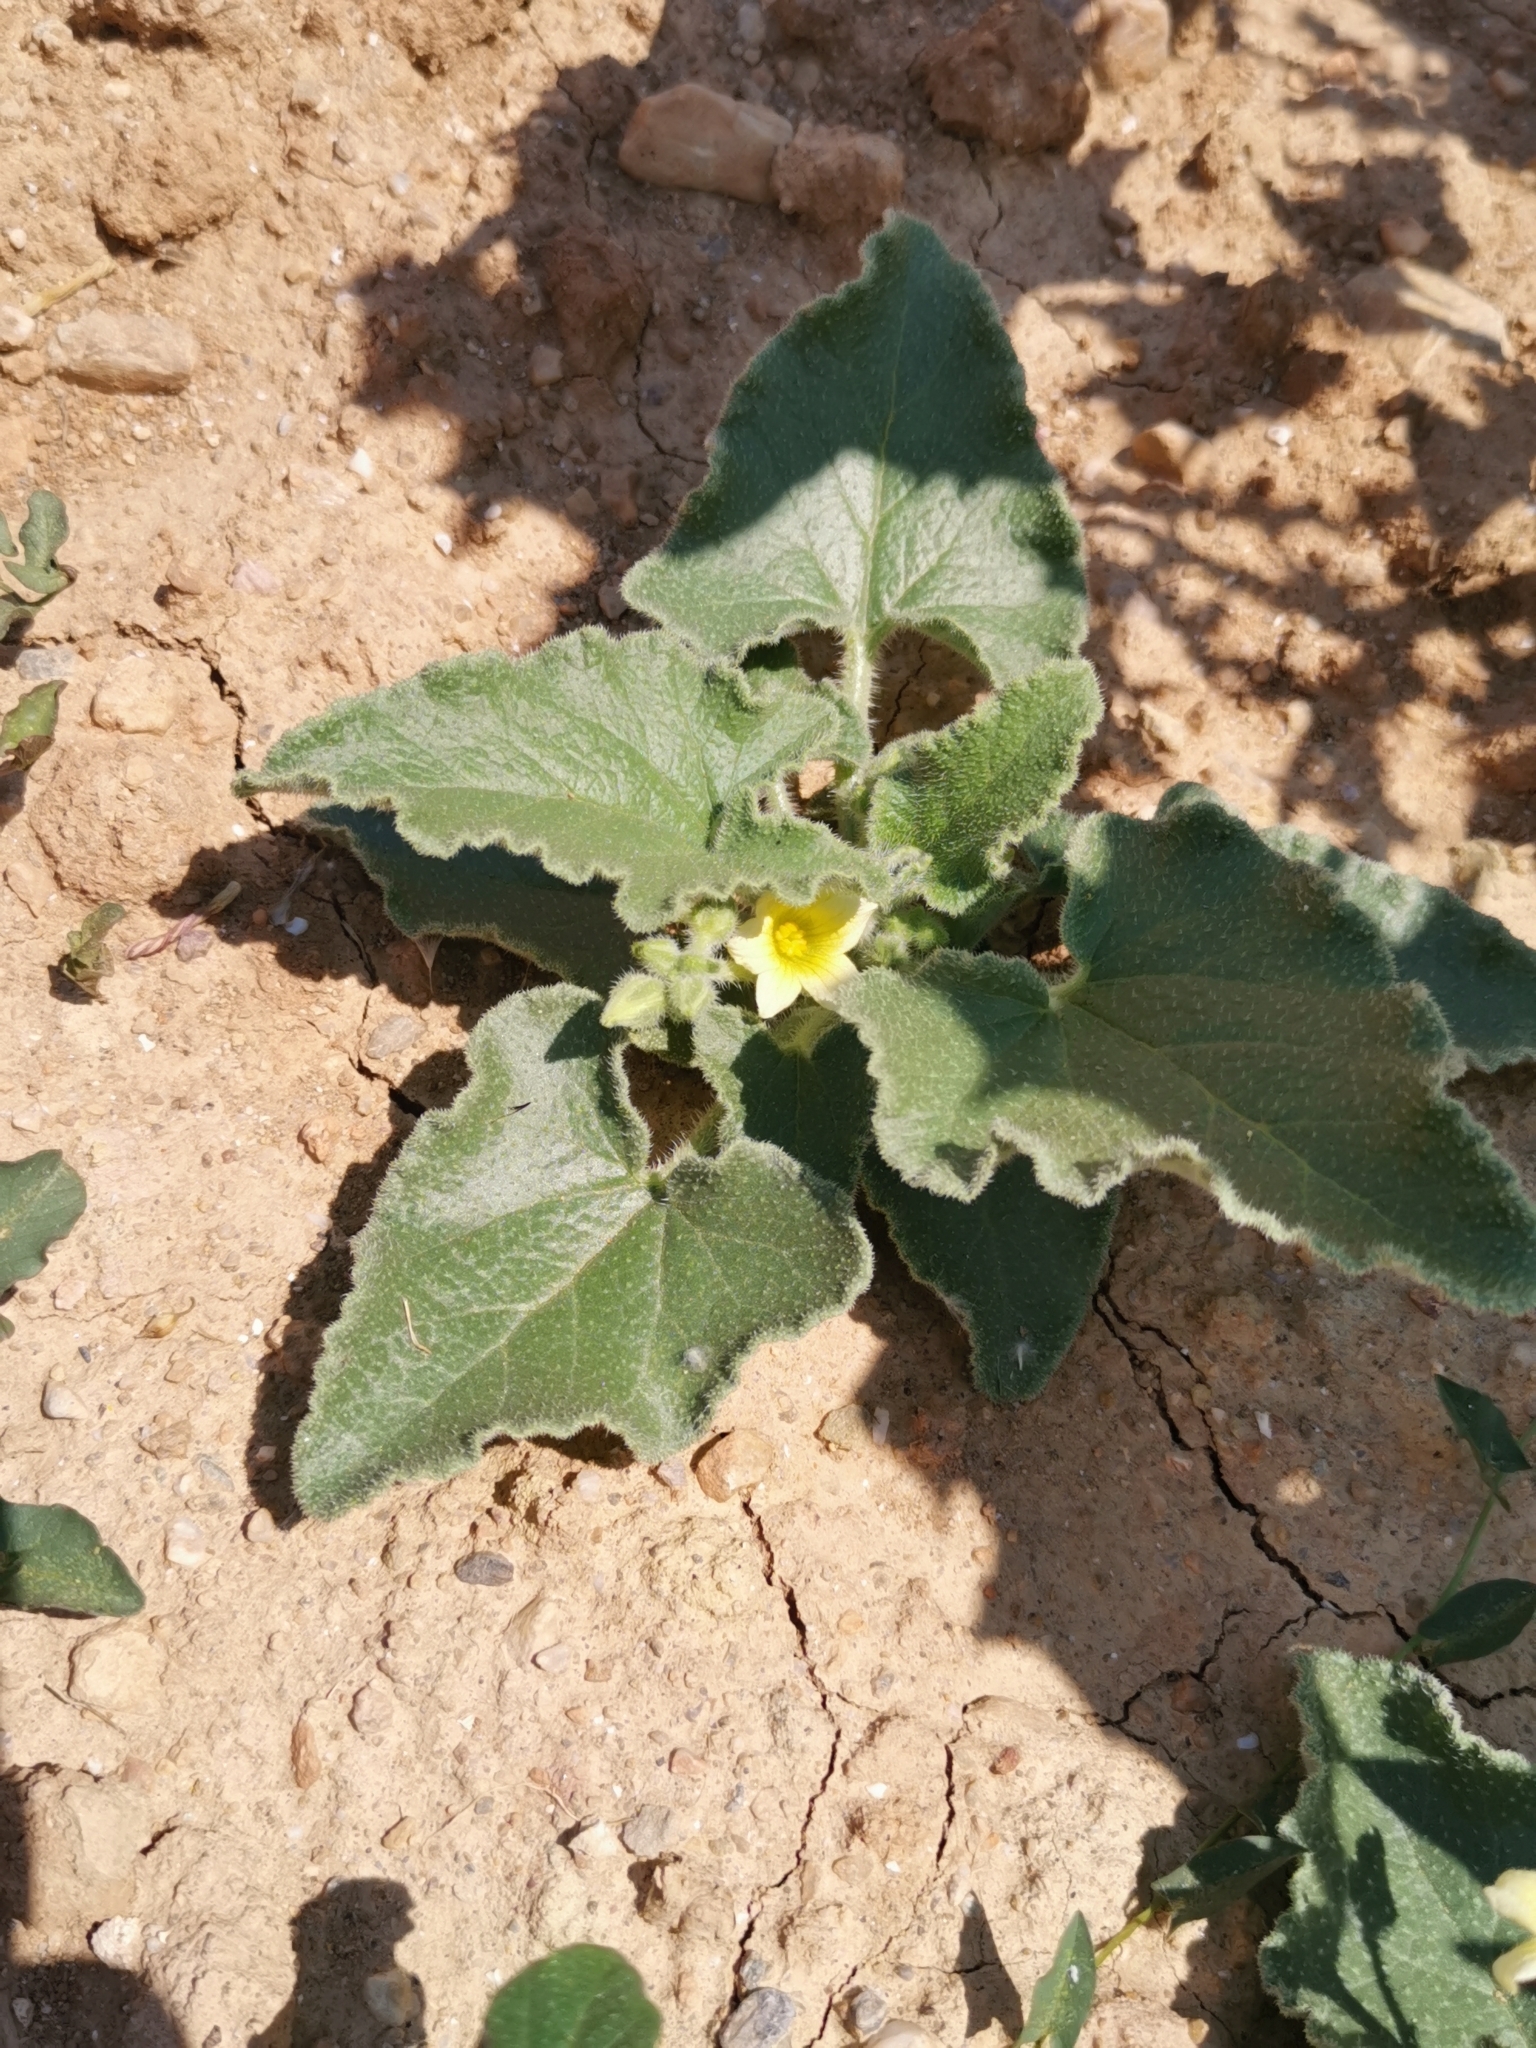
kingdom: Plantae
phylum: Tracheophyta
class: Magnoliopsida
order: Cucurbitales
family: Cucurbitaceae
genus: Ecballium
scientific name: Ecballium elaterium
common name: Squirting cucumber
